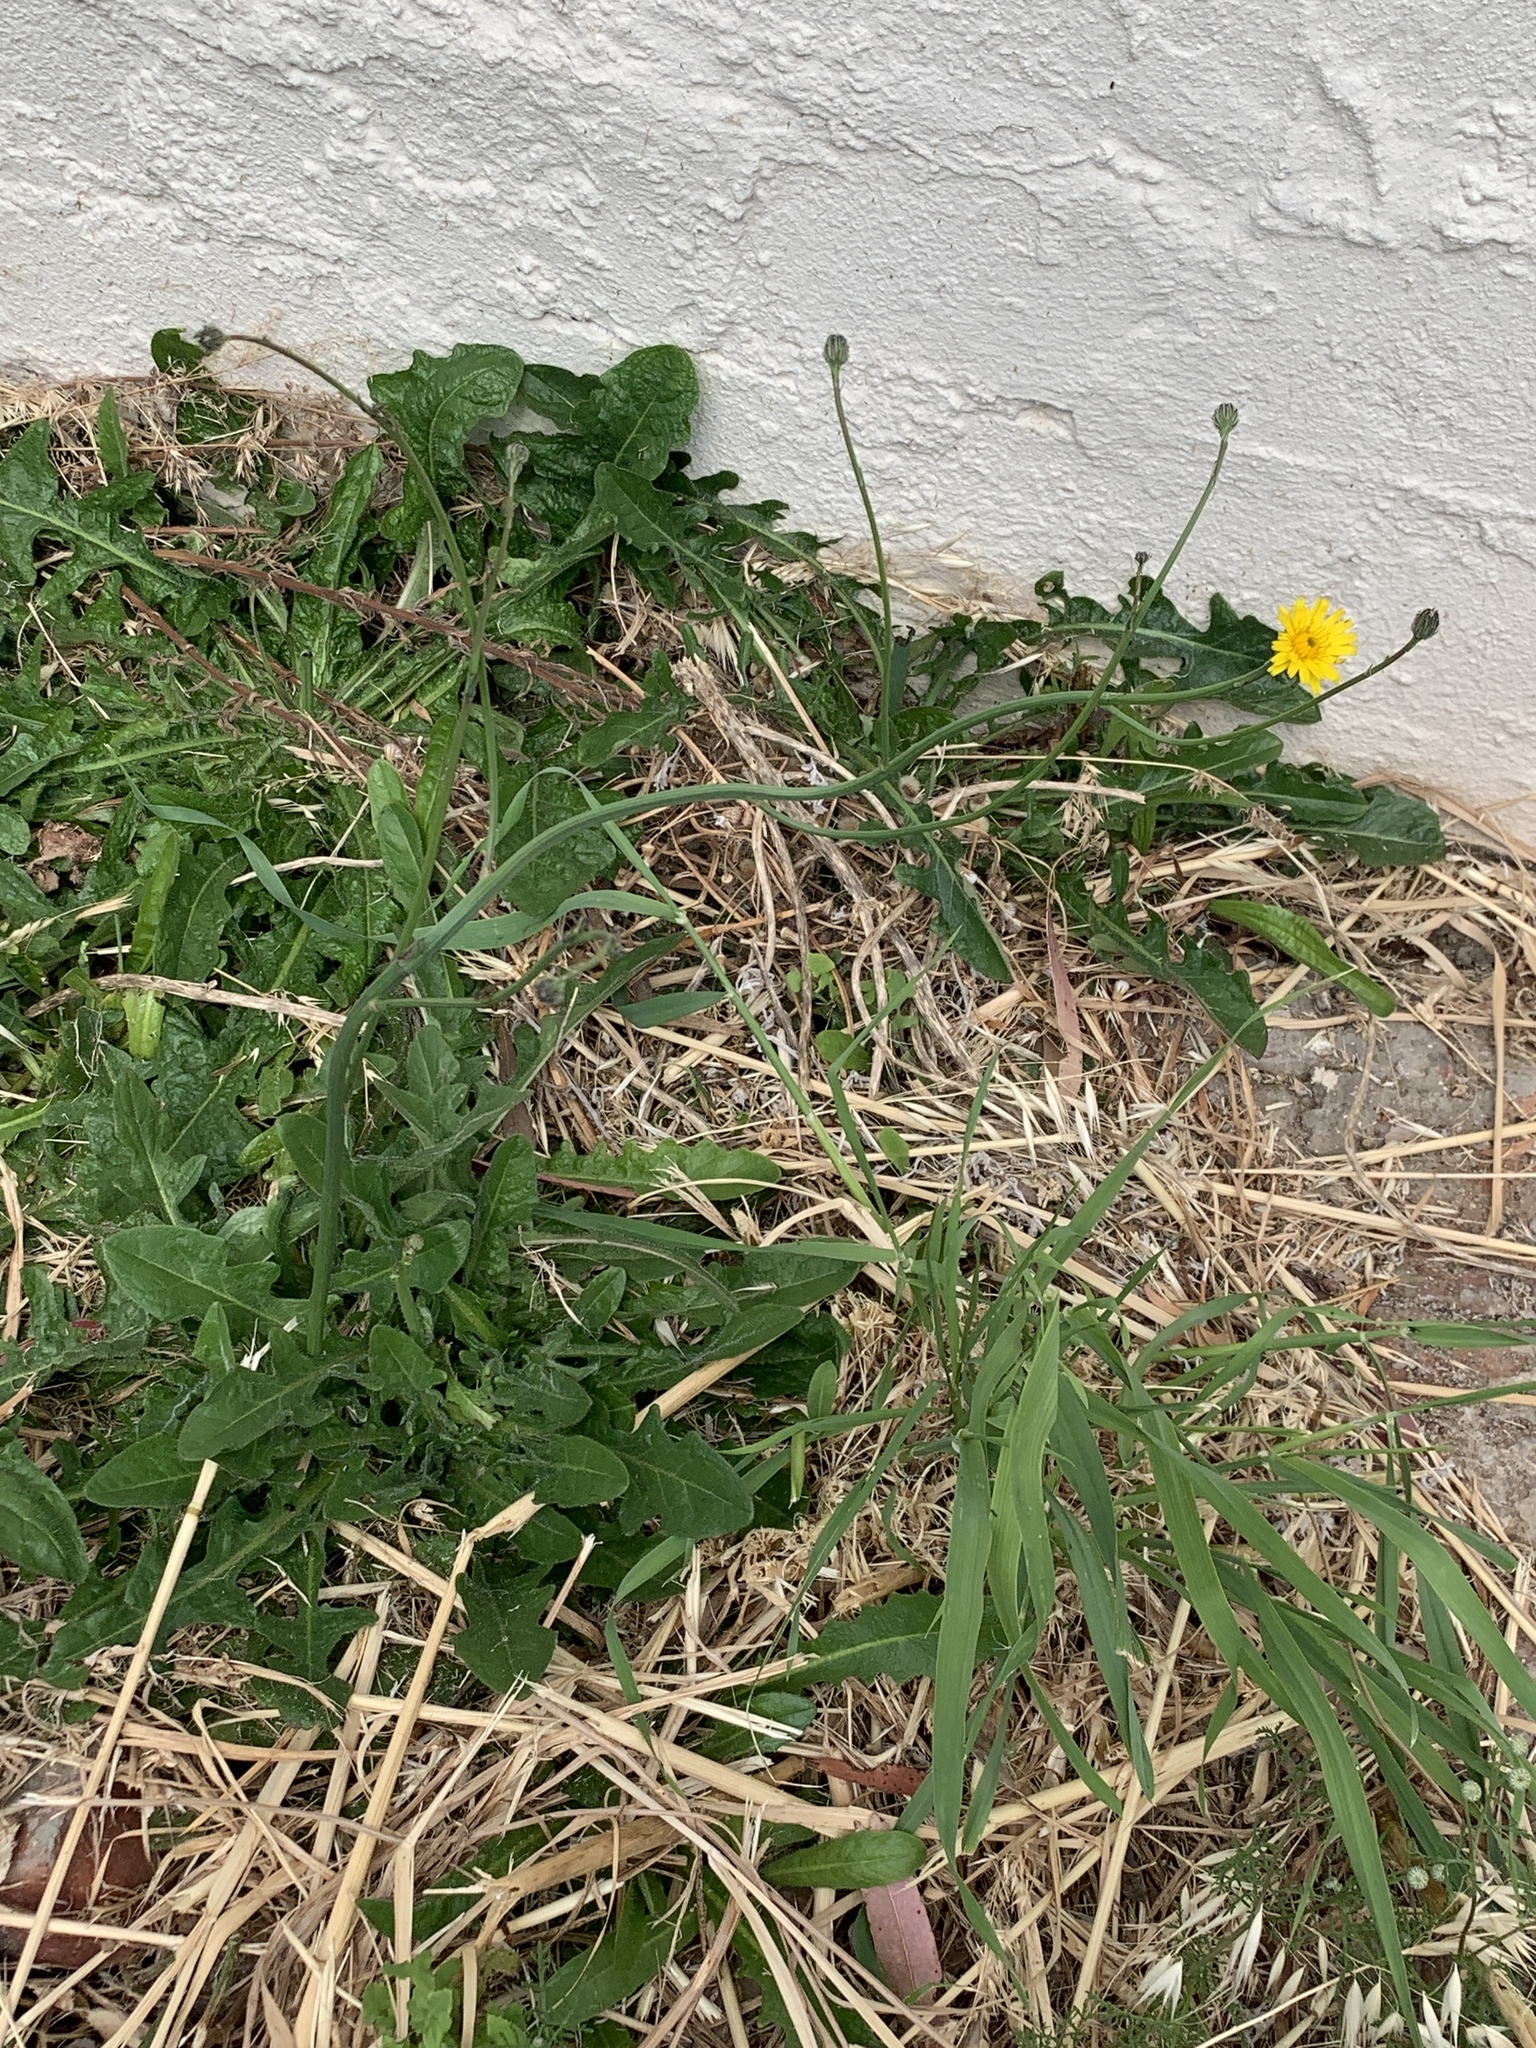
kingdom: Plantae
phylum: Tracheophyta
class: Magnoliopsida
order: Asterales
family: Asteraceae
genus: Hypochaeris
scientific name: Hypochaeris radicata
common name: Flatweed
